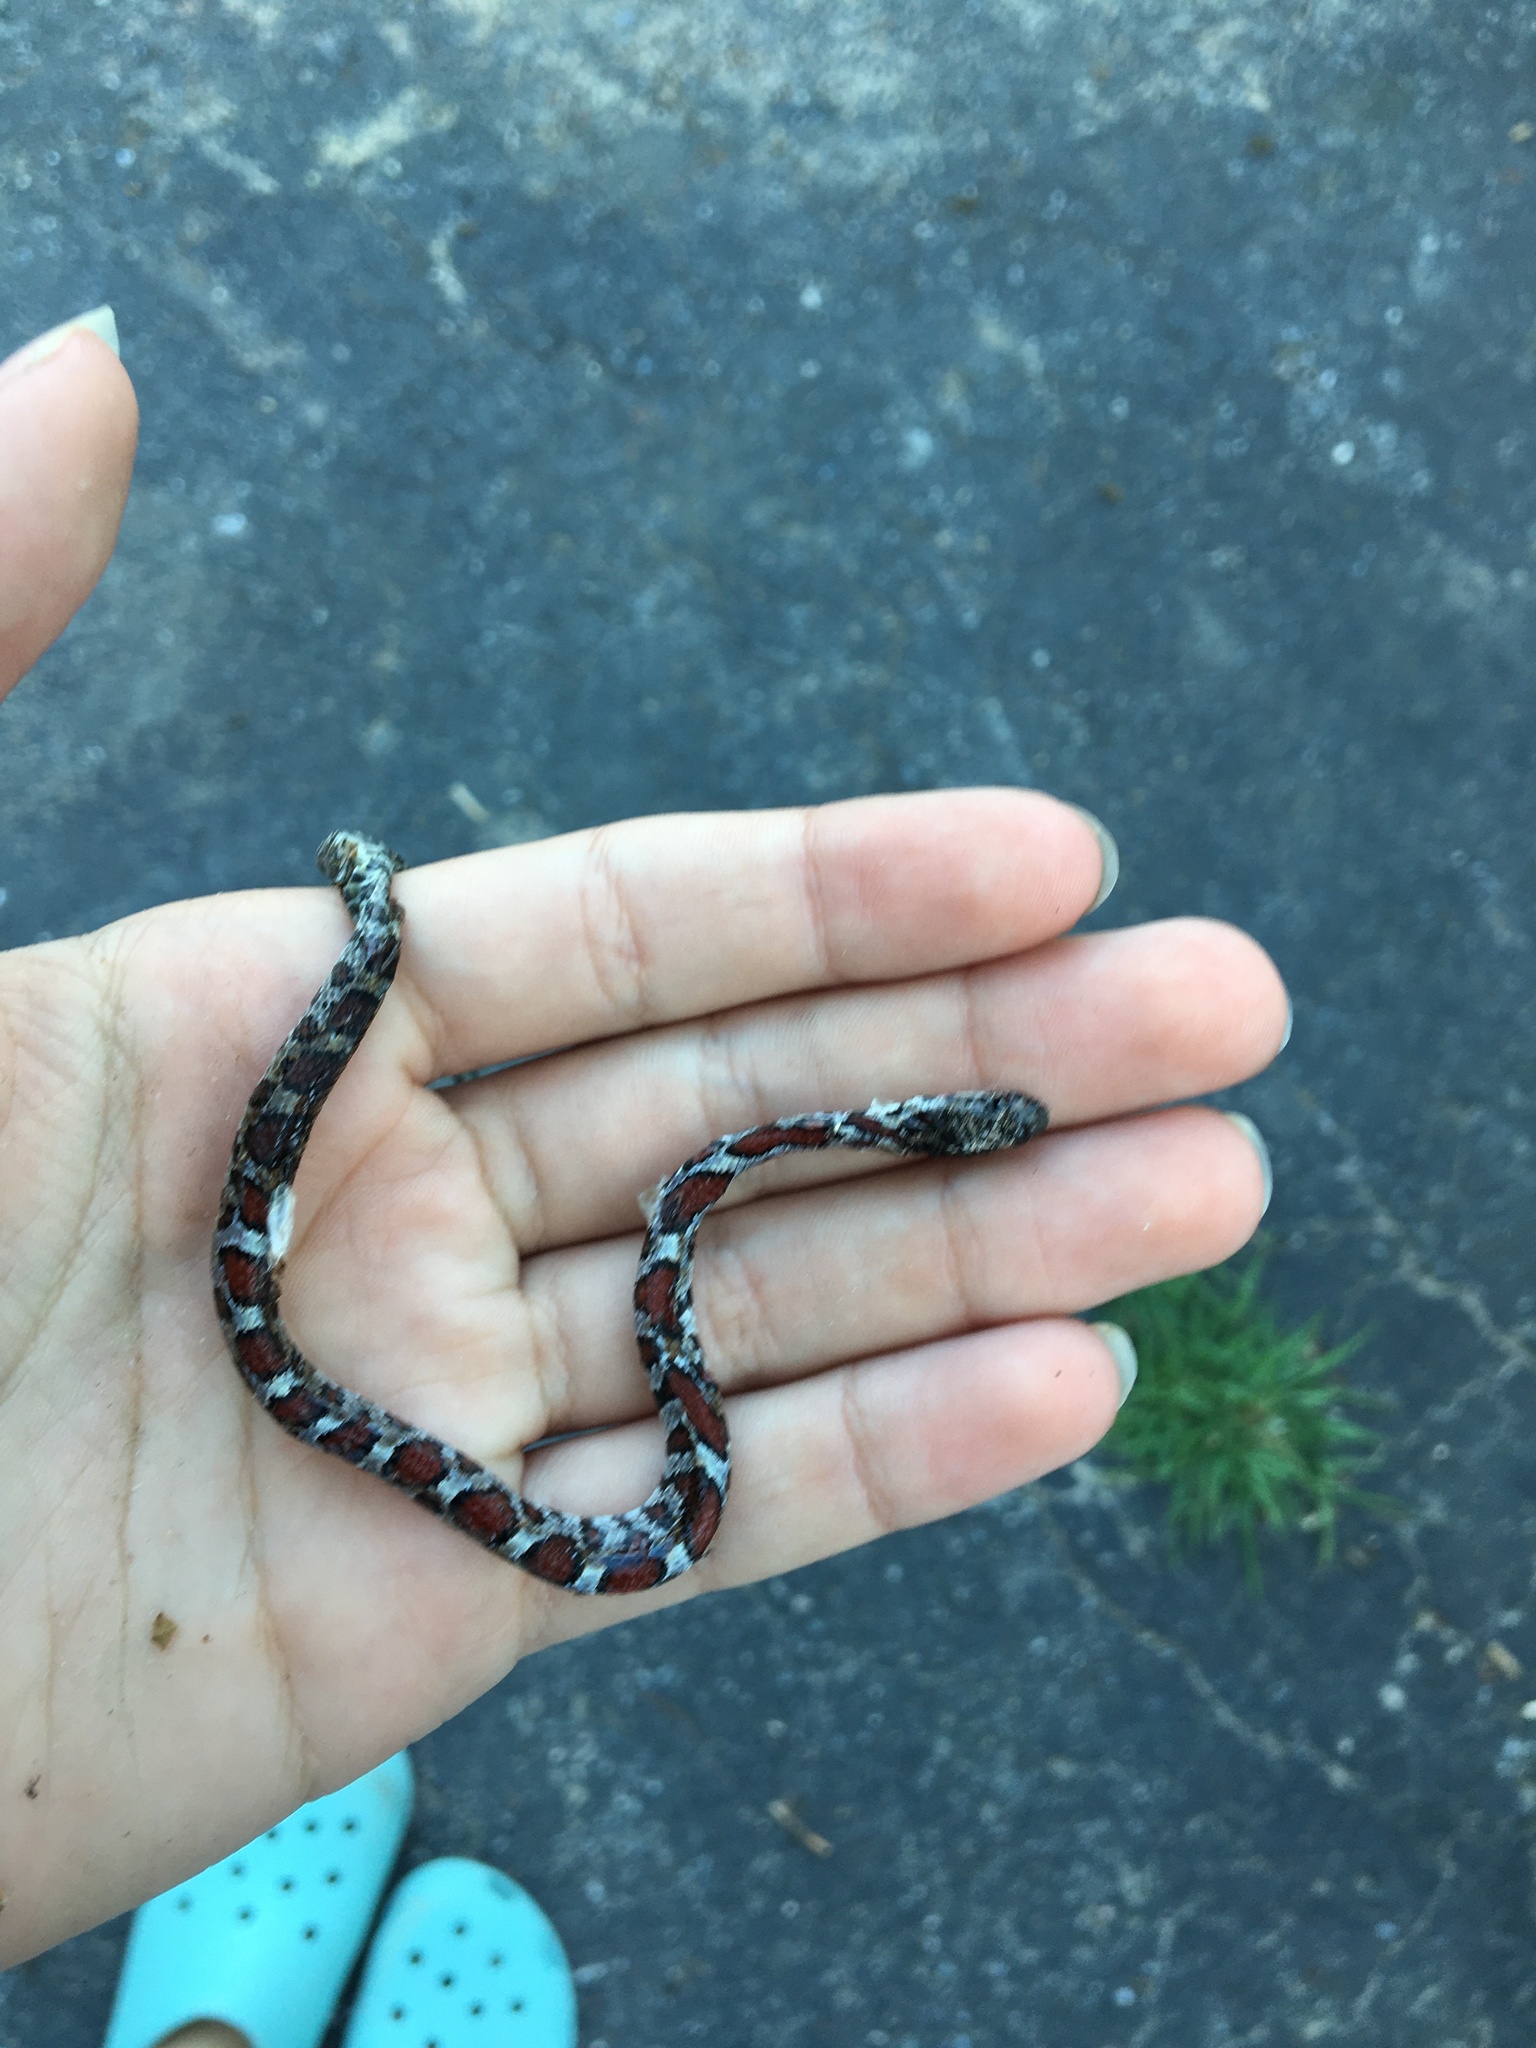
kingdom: Animalia
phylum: Chordata
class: Squamata
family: Colubridae
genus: Lampropeltis
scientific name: Lampropeltis triangulum
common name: Eastern milksnake
